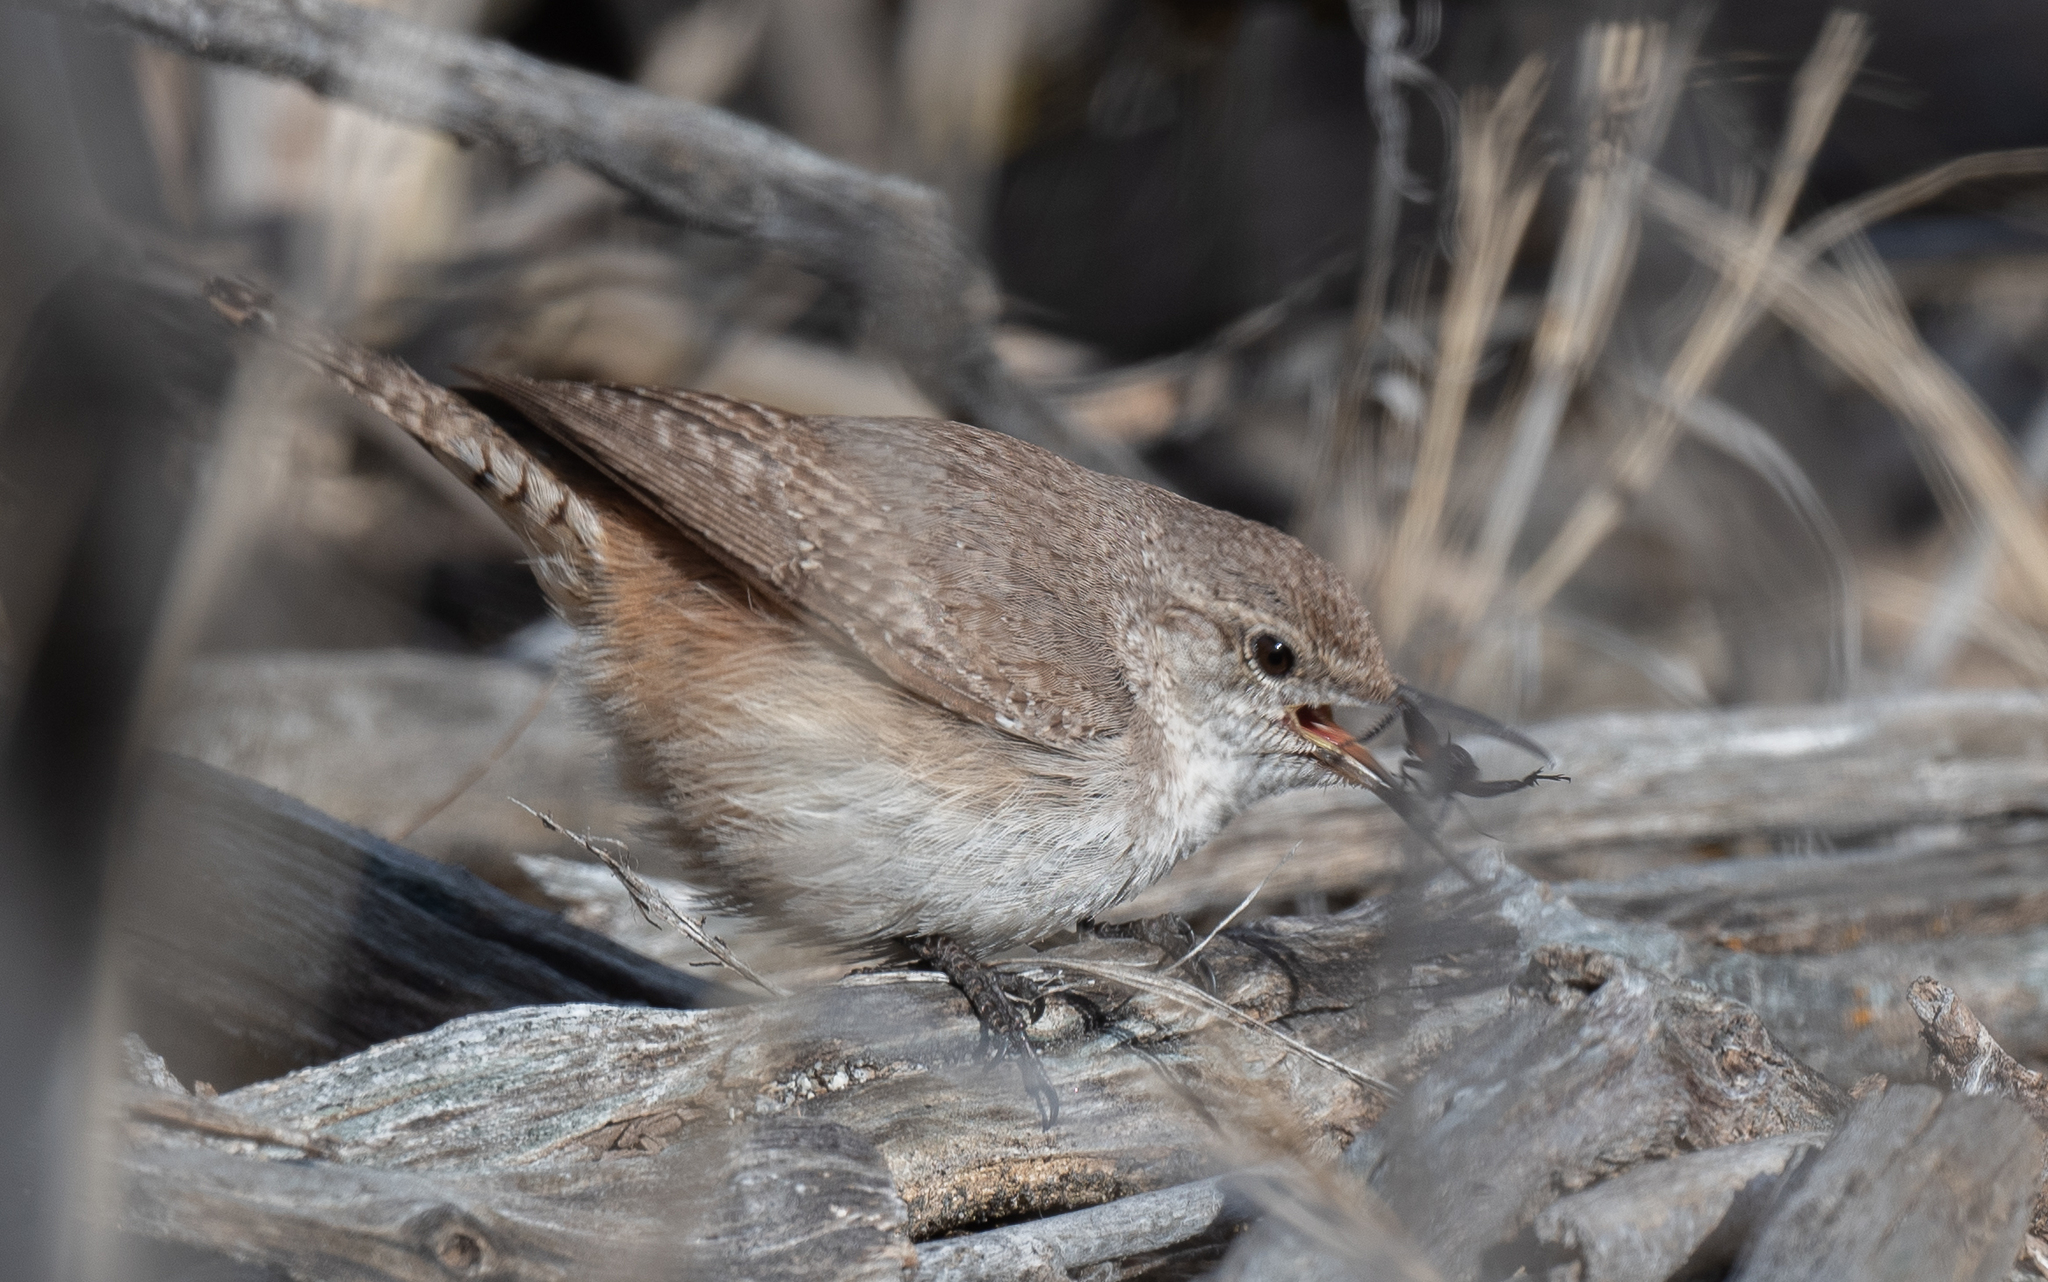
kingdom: Animalia
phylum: Chordata
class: Aves
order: Passeriformes
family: Troglodytidae
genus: Salpinctes
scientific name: Salpinctes obsoletus
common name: Rock wren
